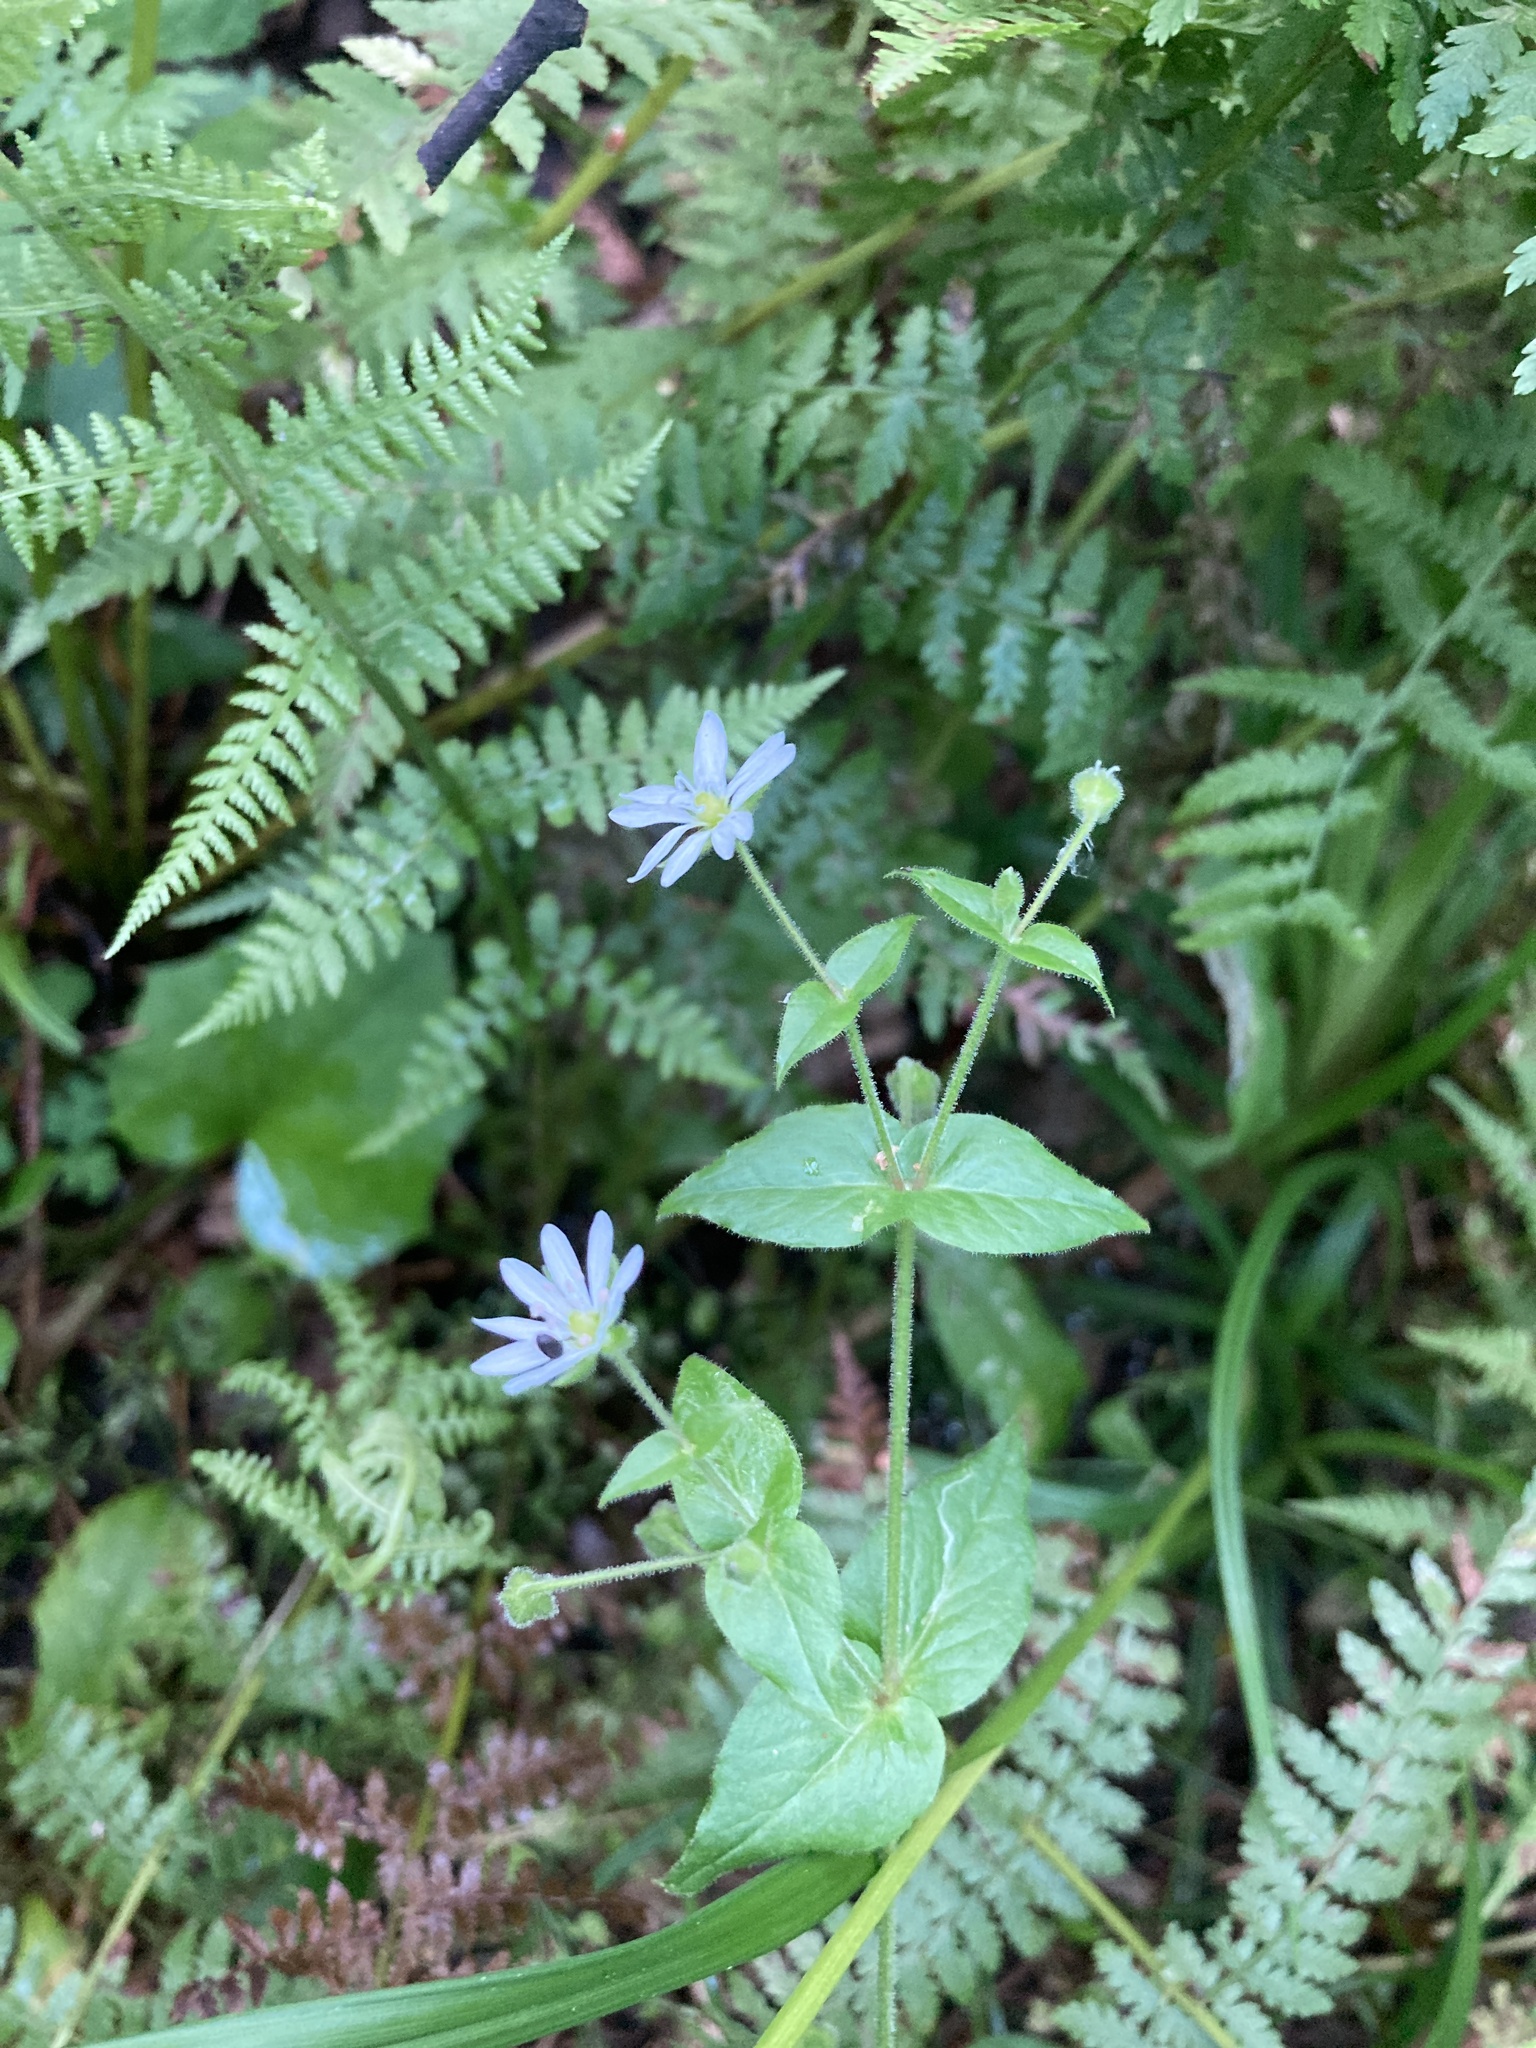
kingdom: Plantae
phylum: Tracheophyta
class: Magnoliopsida
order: Caryophyllales
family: Caryophyllaceae
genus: Stellaria
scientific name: Stellaria aquatica
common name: Water chickweed
